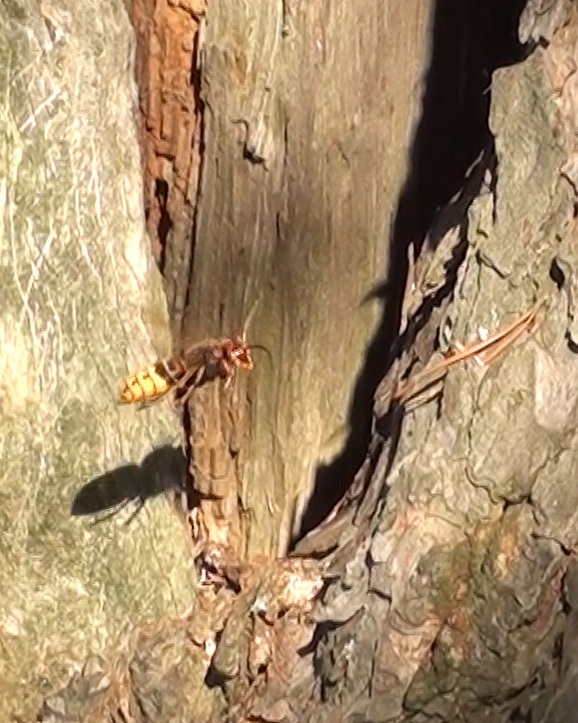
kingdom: Animalia
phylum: Arthropoda
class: Insecta
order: Hymenoptera
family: Vespidae
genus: Vespa
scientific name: Vespa crabro
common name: Hornet
